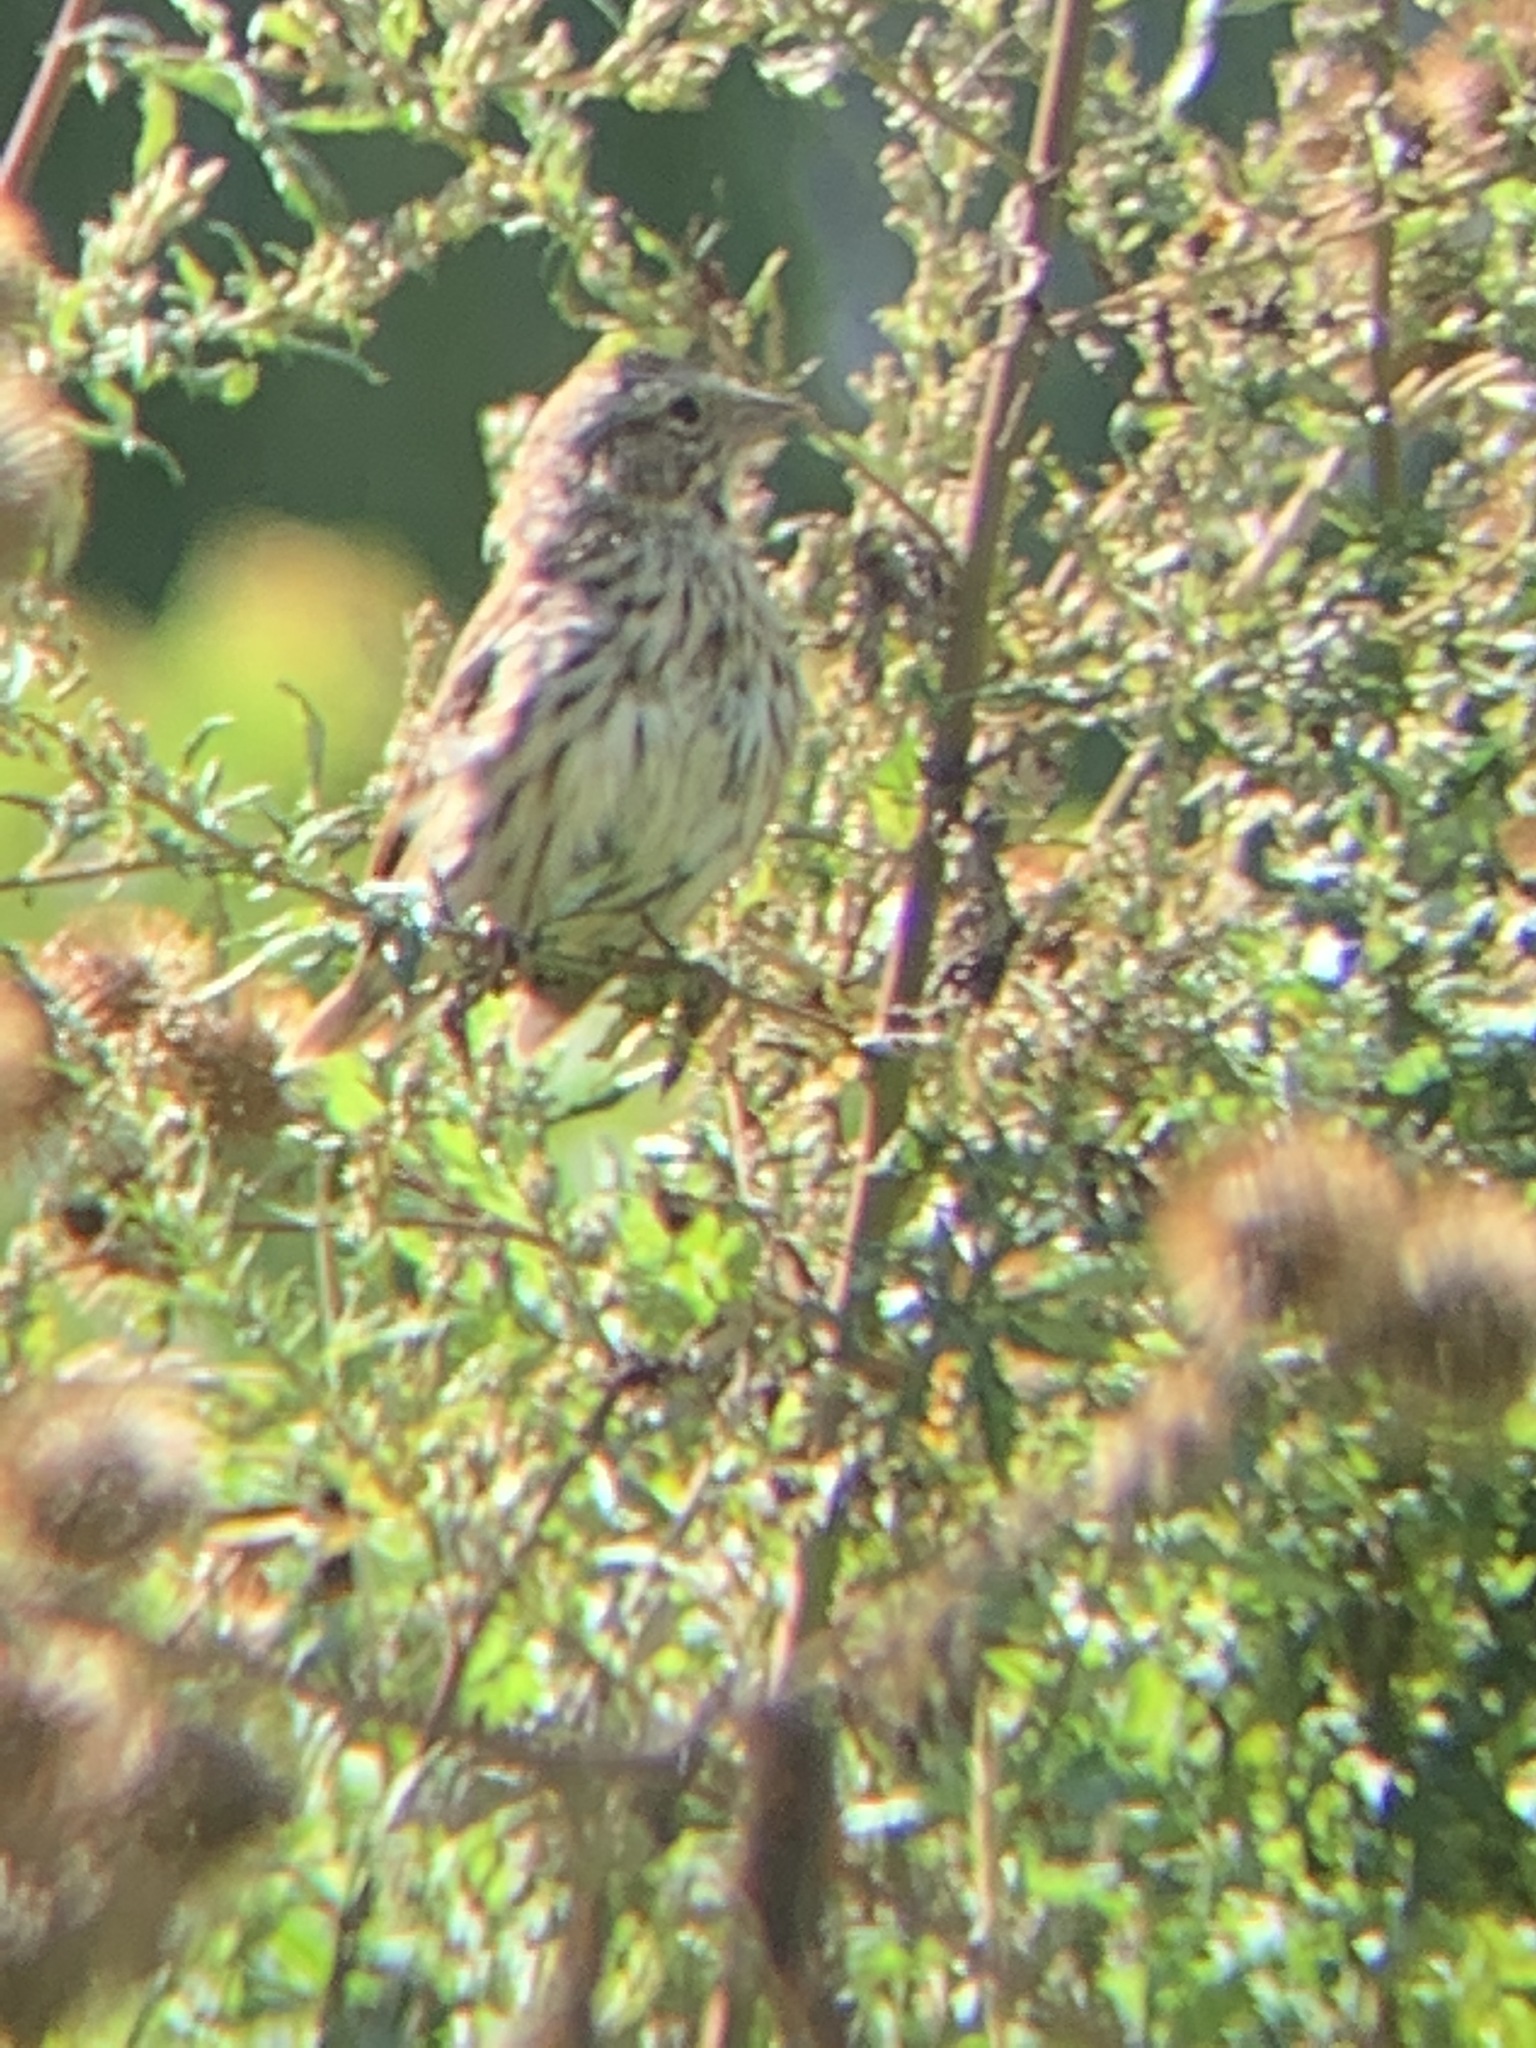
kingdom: Animalia
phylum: Chordata
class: Aves
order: Passeriformes
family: Passerellidae
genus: Melospiza
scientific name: Melospiza melodia
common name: Song sparrow
